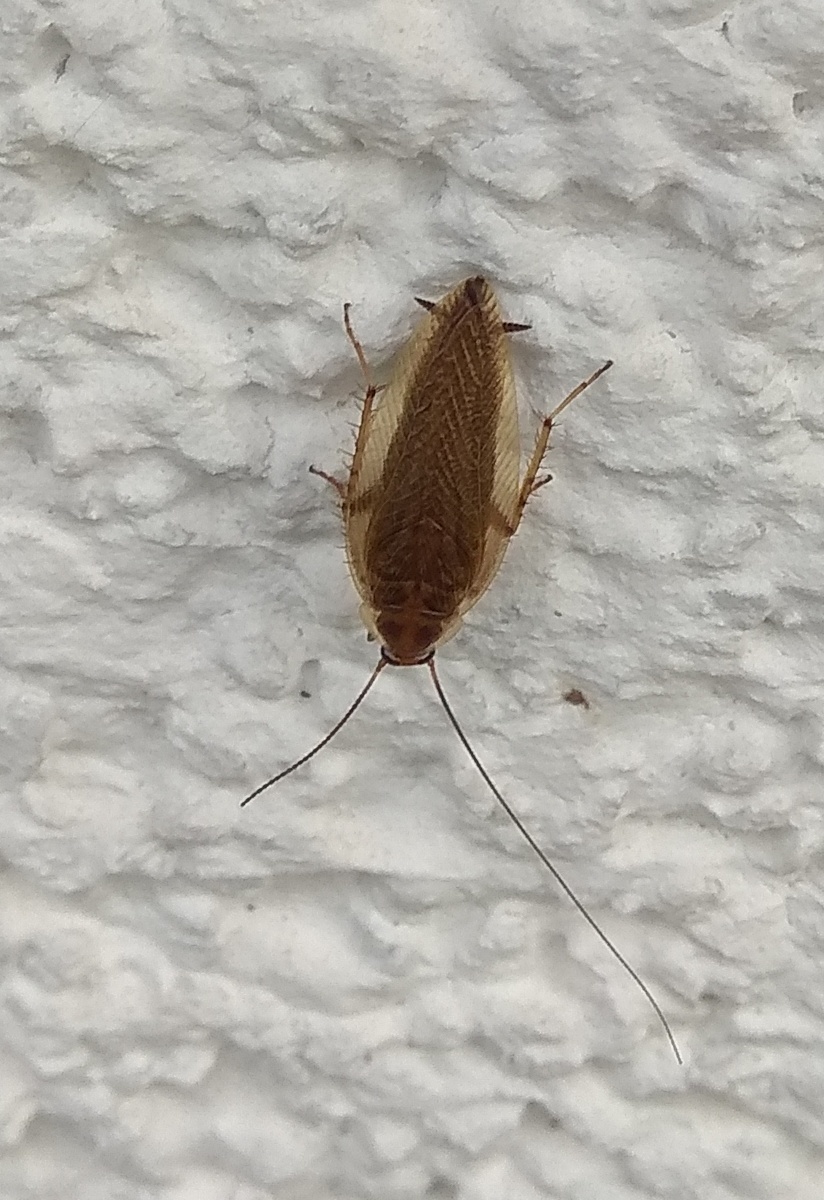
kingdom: Animalia
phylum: Arthropoda
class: Insecta
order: Blattodea
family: Ectobiidae
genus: Ectobius
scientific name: Ectobius vittiventris
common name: Garden cockroach
